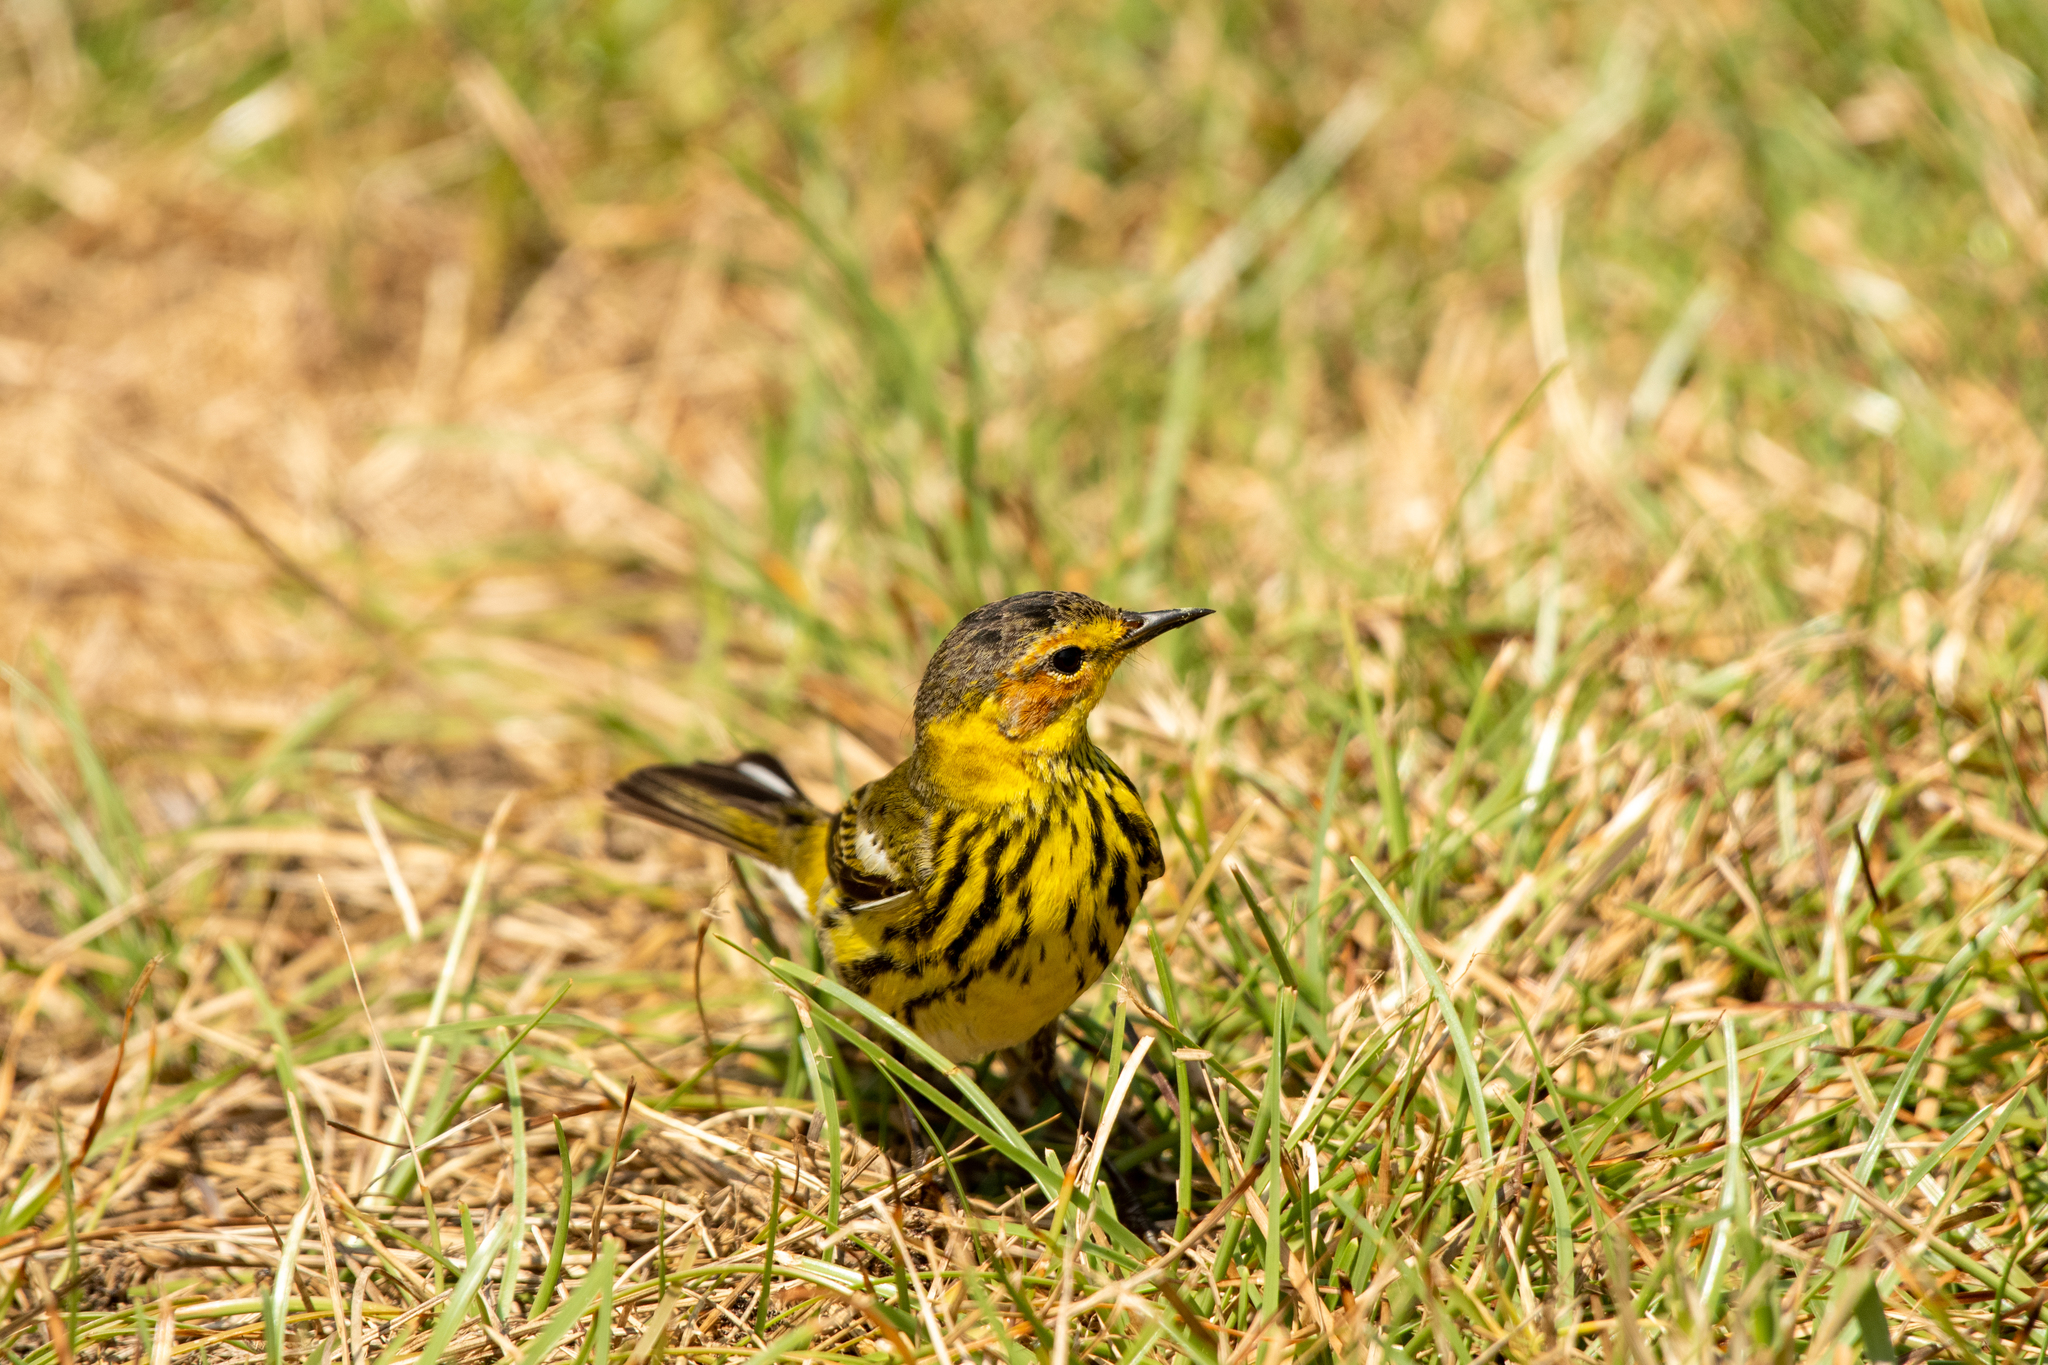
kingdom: Animalia
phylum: Chordata
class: Aves
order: Passeriformes
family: Parulidae
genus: Setophaga
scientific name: Setophaga tigrina
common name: Cape may warbler
